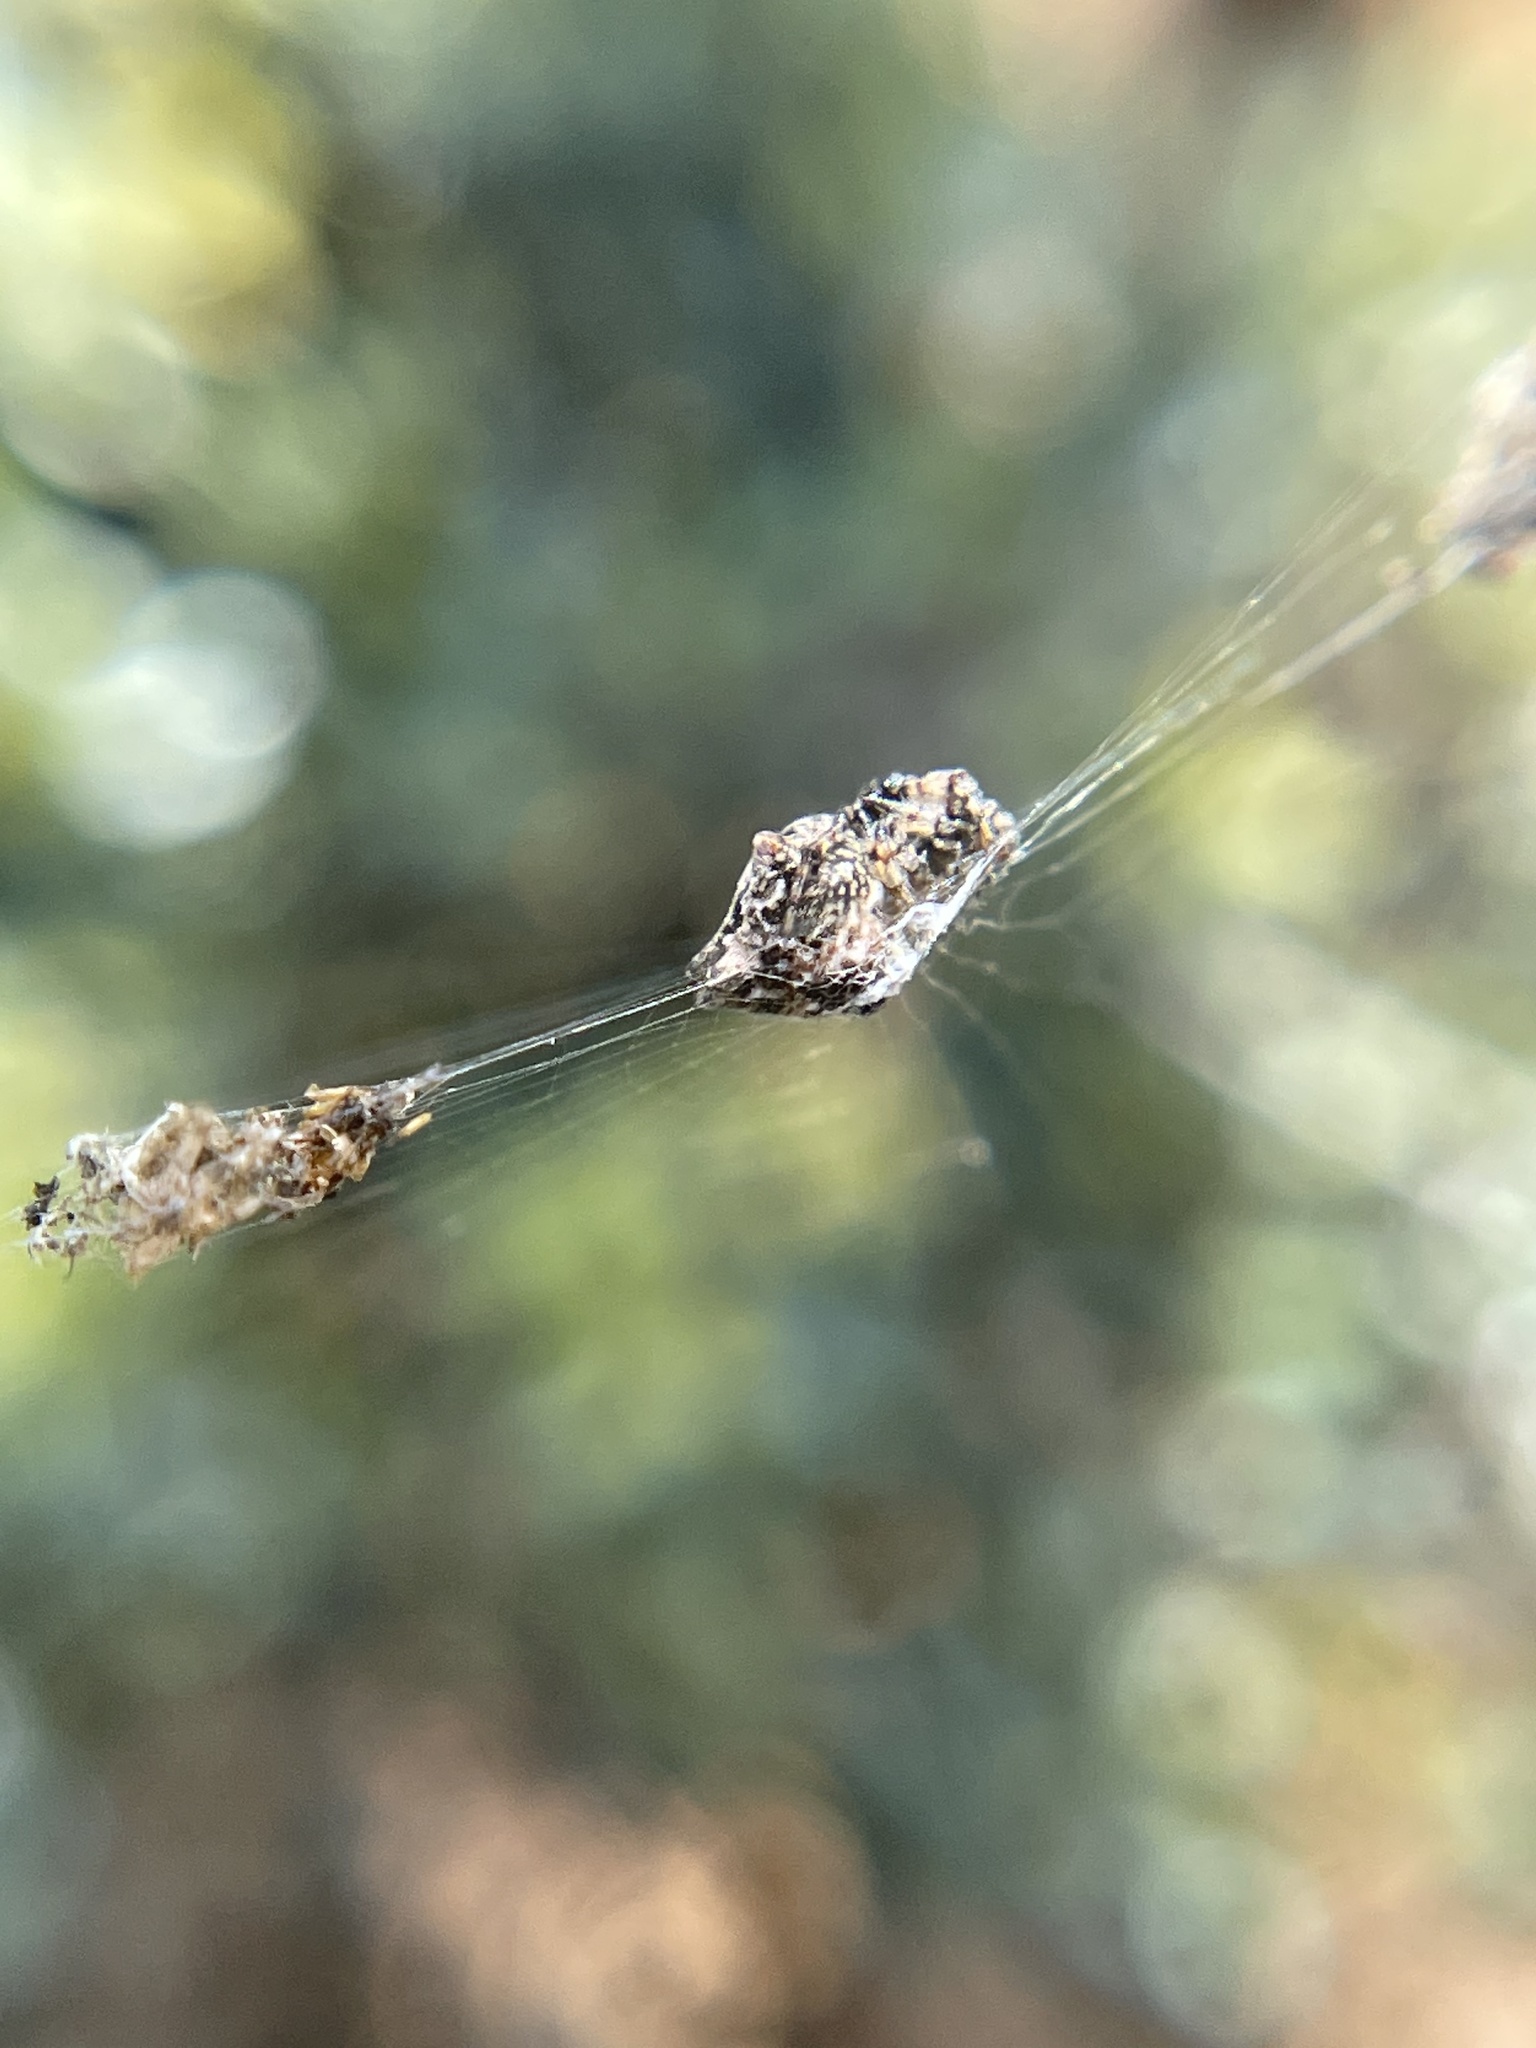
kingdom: Animalia
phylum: Arthropoda
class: Arachnida
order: Araneae
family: Araneidae
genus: Cyclosa
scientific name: Cyclosa walckenaeri
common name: Orb weavers
